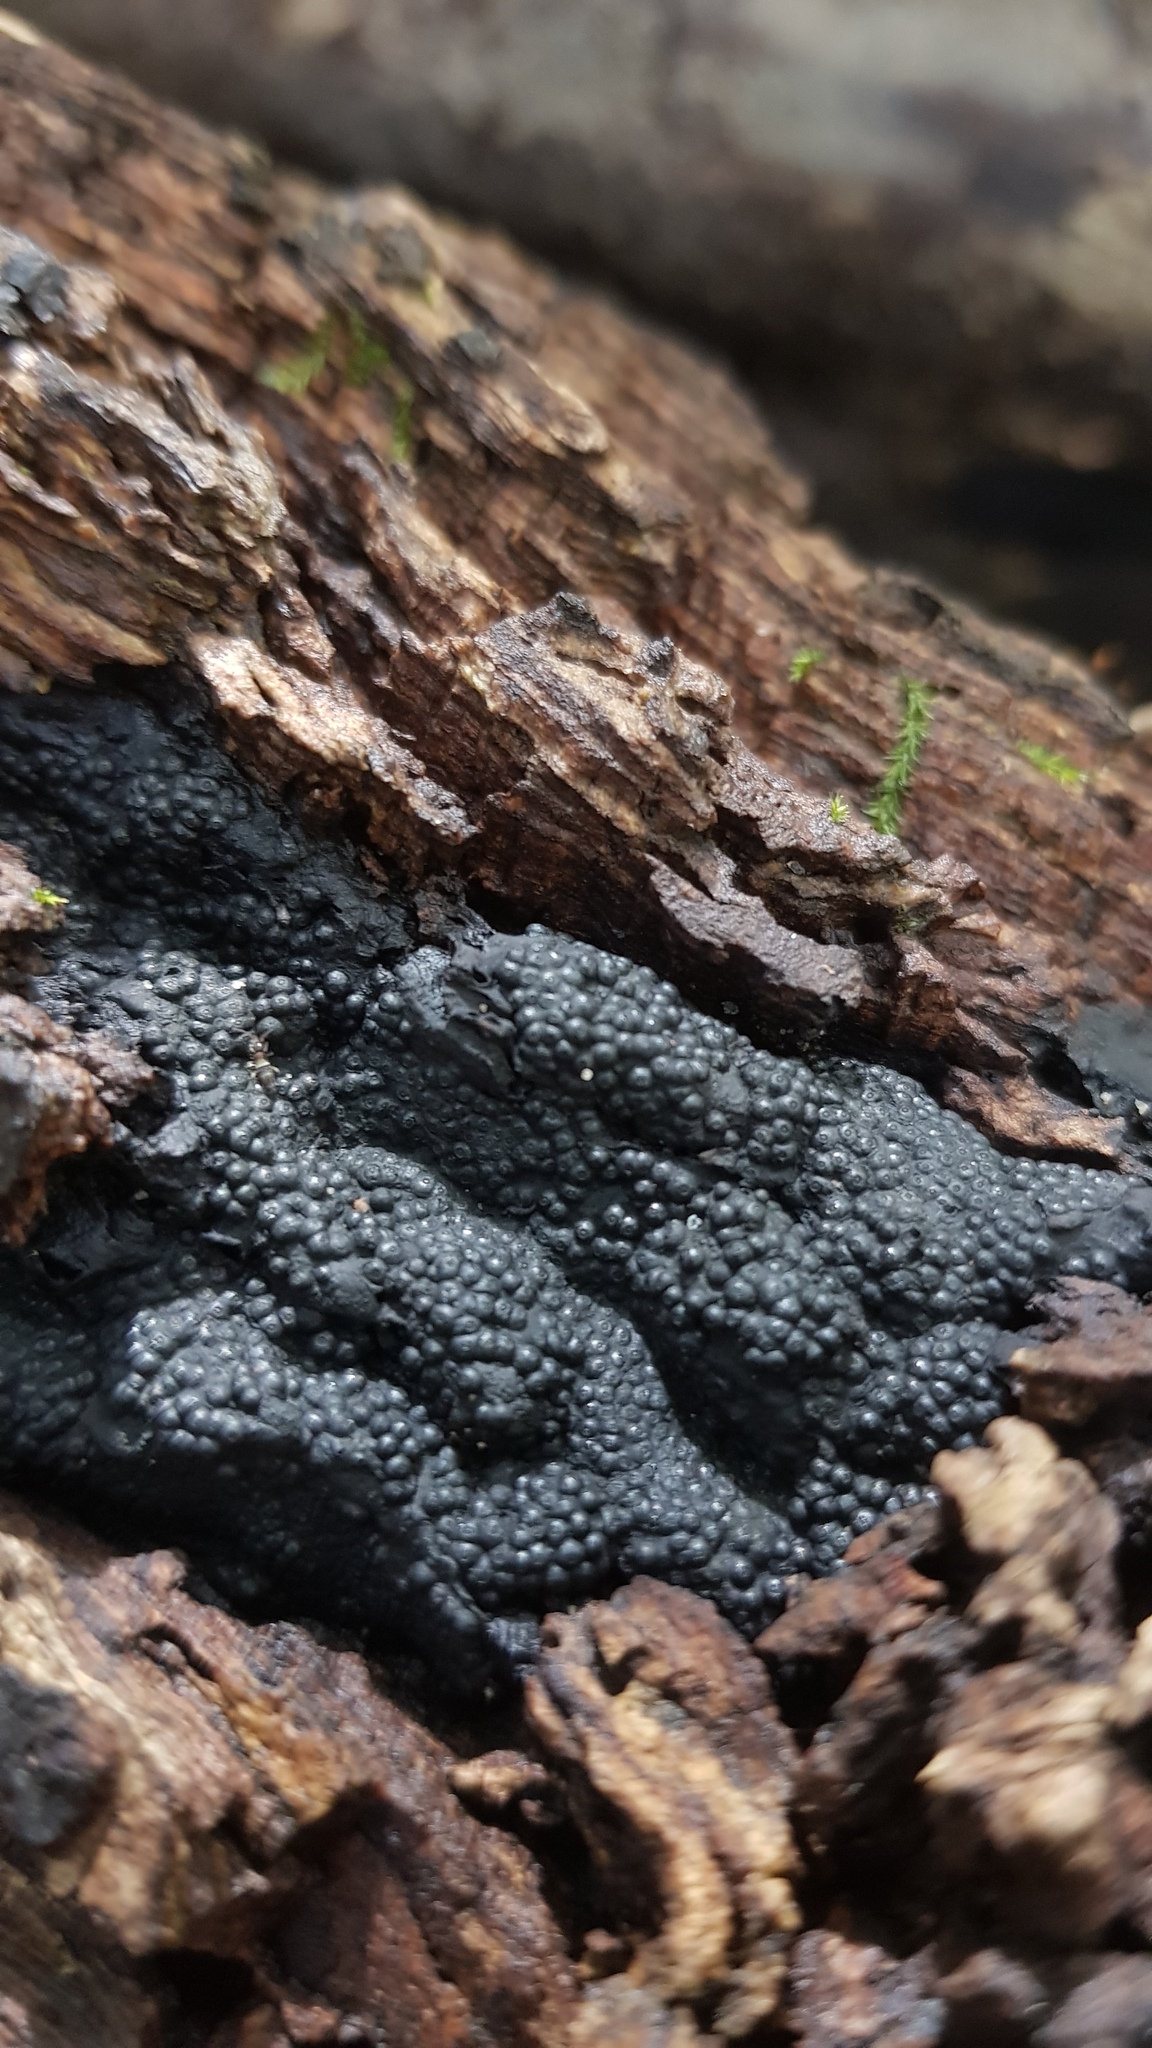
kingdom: Fungi
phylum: Ascomycota
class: Sordariomycetes
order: Xylariales
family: Hypoxylaceae
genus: Annulohypoxylon
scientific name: Annulohypoxylon bovei
